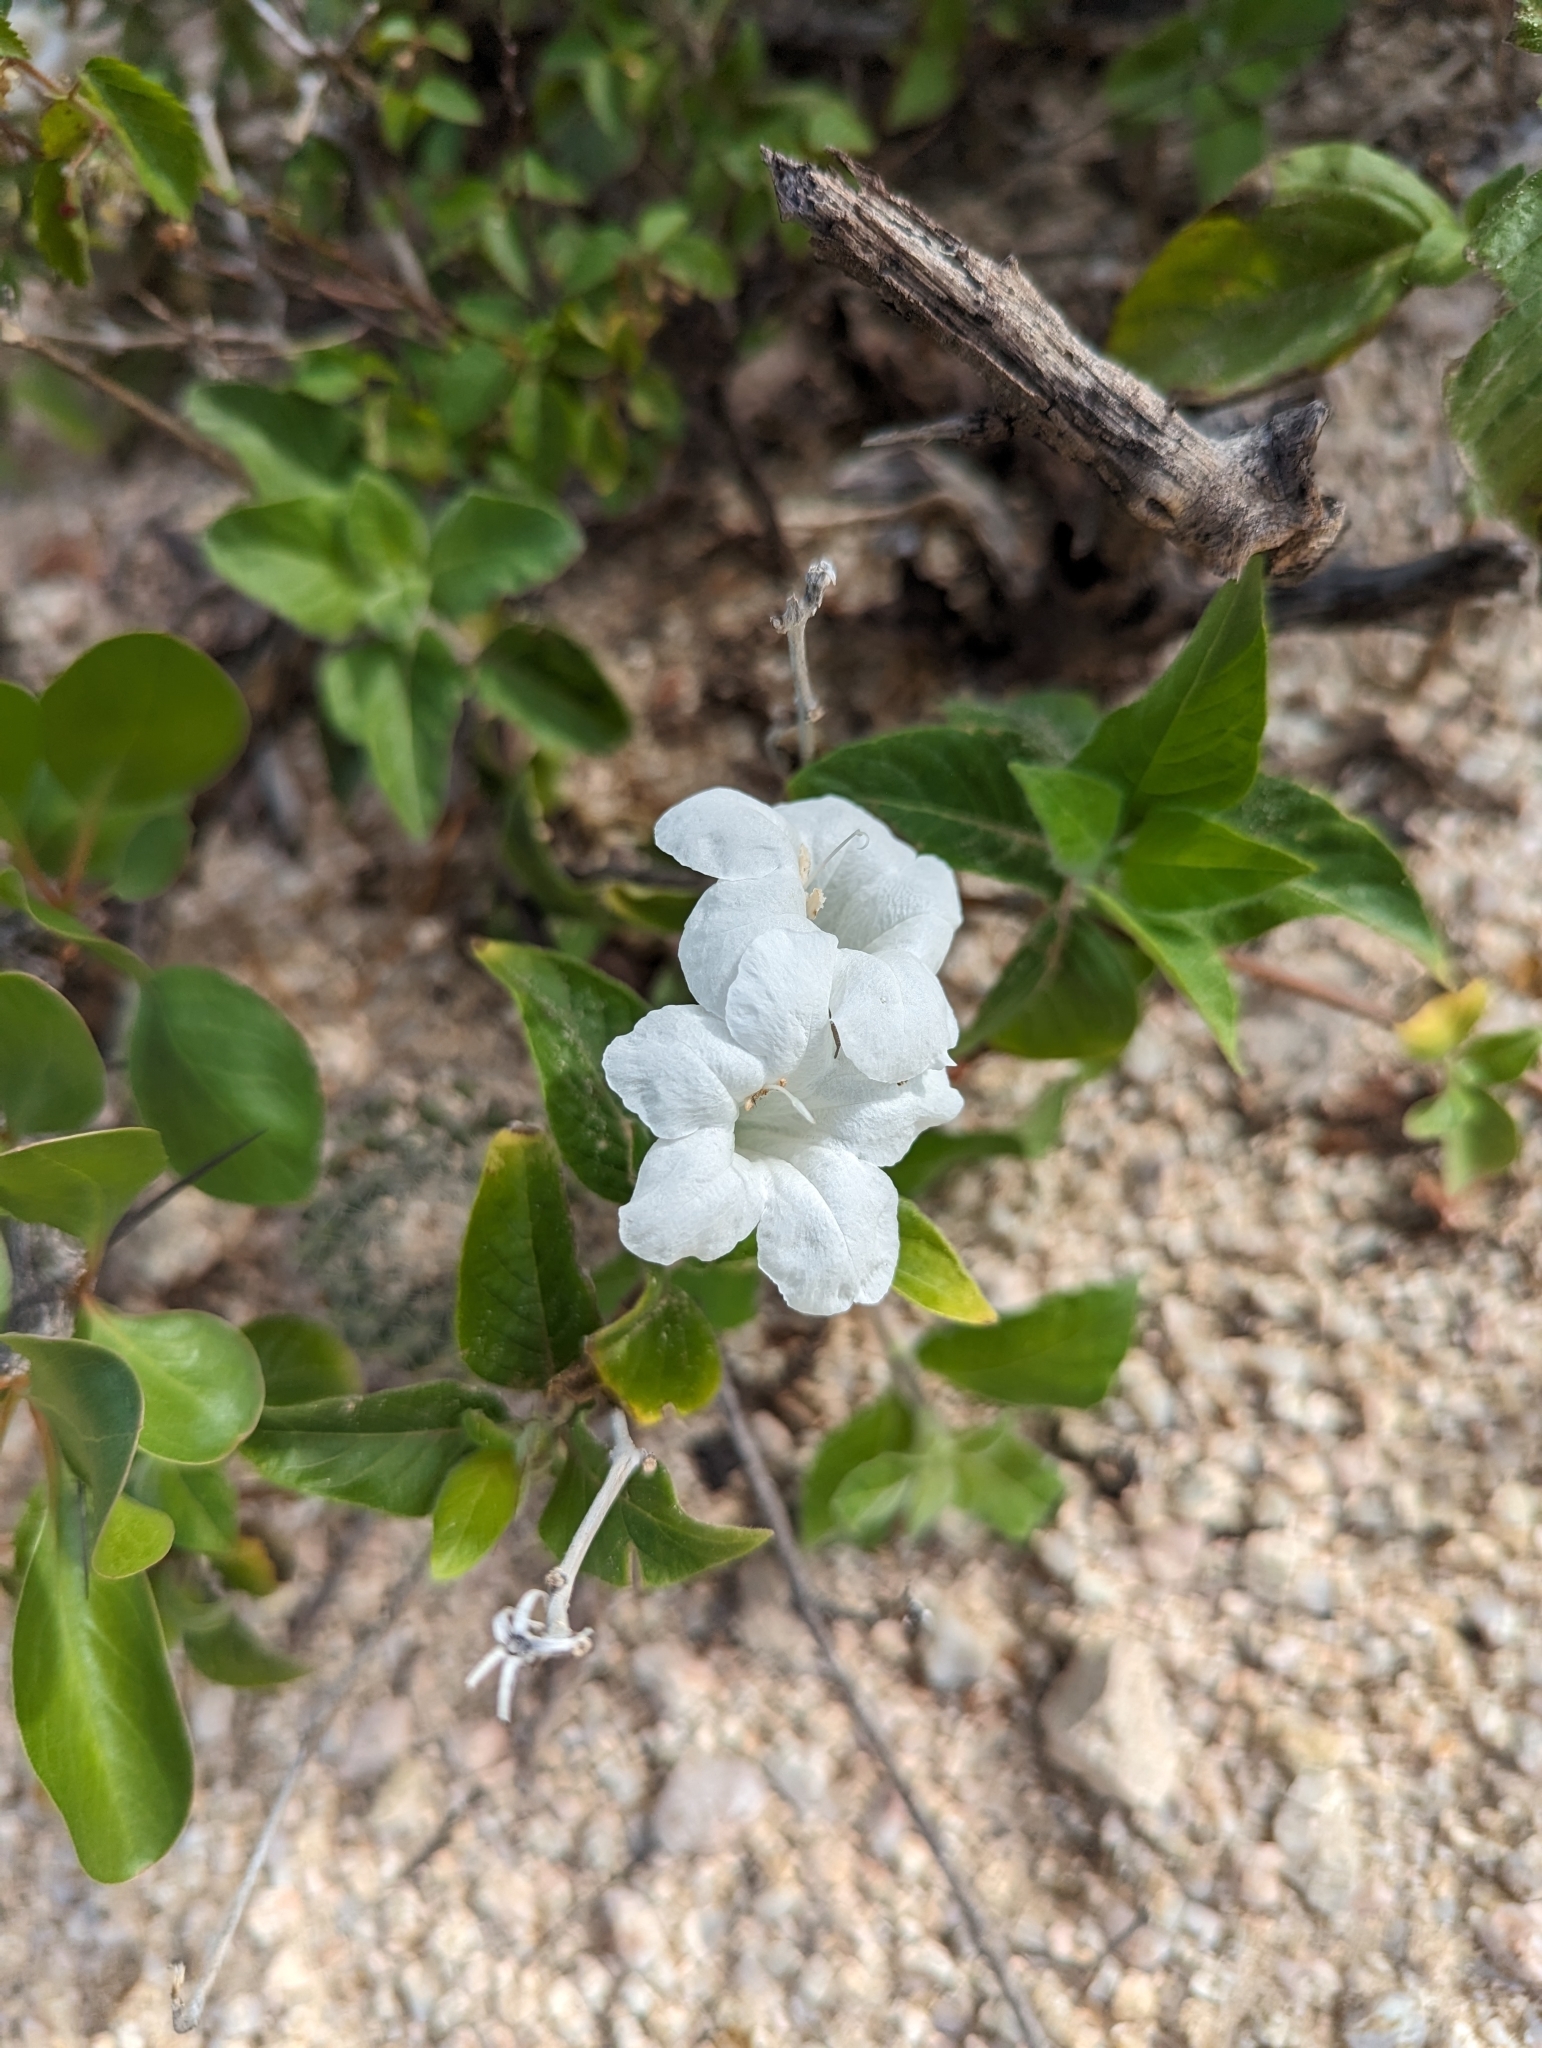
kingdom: Plantae
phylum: Tracheophyta
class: Magnoliopsida
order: Lamiales
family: Acanthaceae
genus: Ruellia
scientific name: Ruellia leucantha
